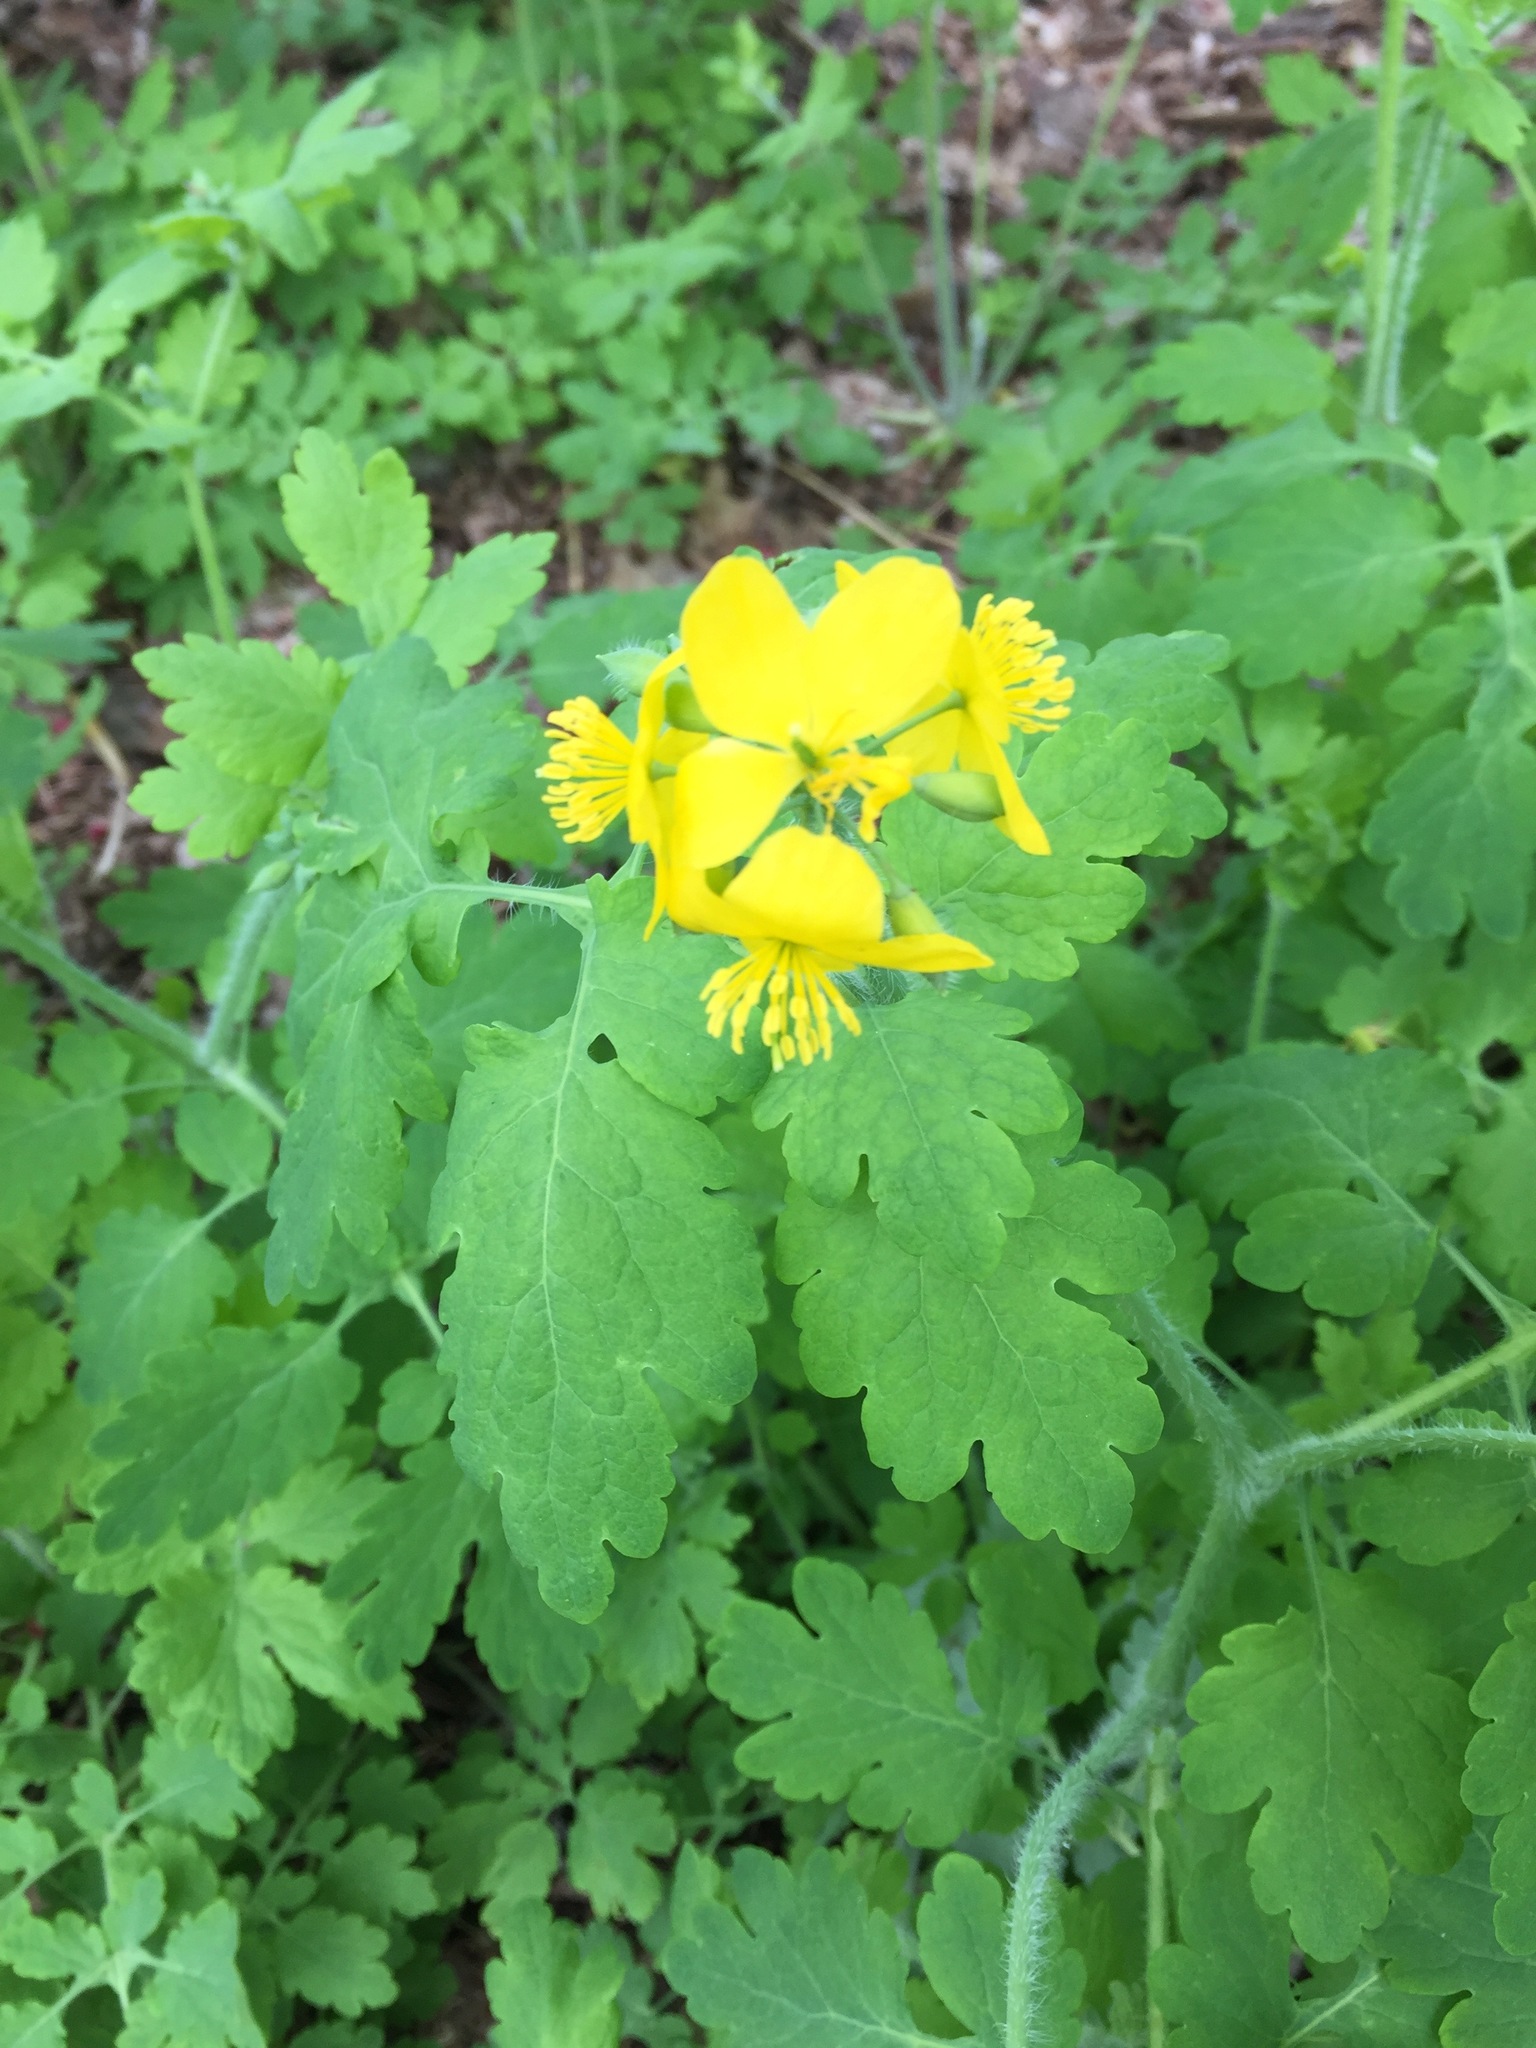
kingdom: Plantae
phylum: Tracheophyta
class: Magnoliopsida
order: Ranunculales
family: Papaveraceae
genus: Chelidonium
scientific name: Chelidonium majus
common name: Greater celandine
